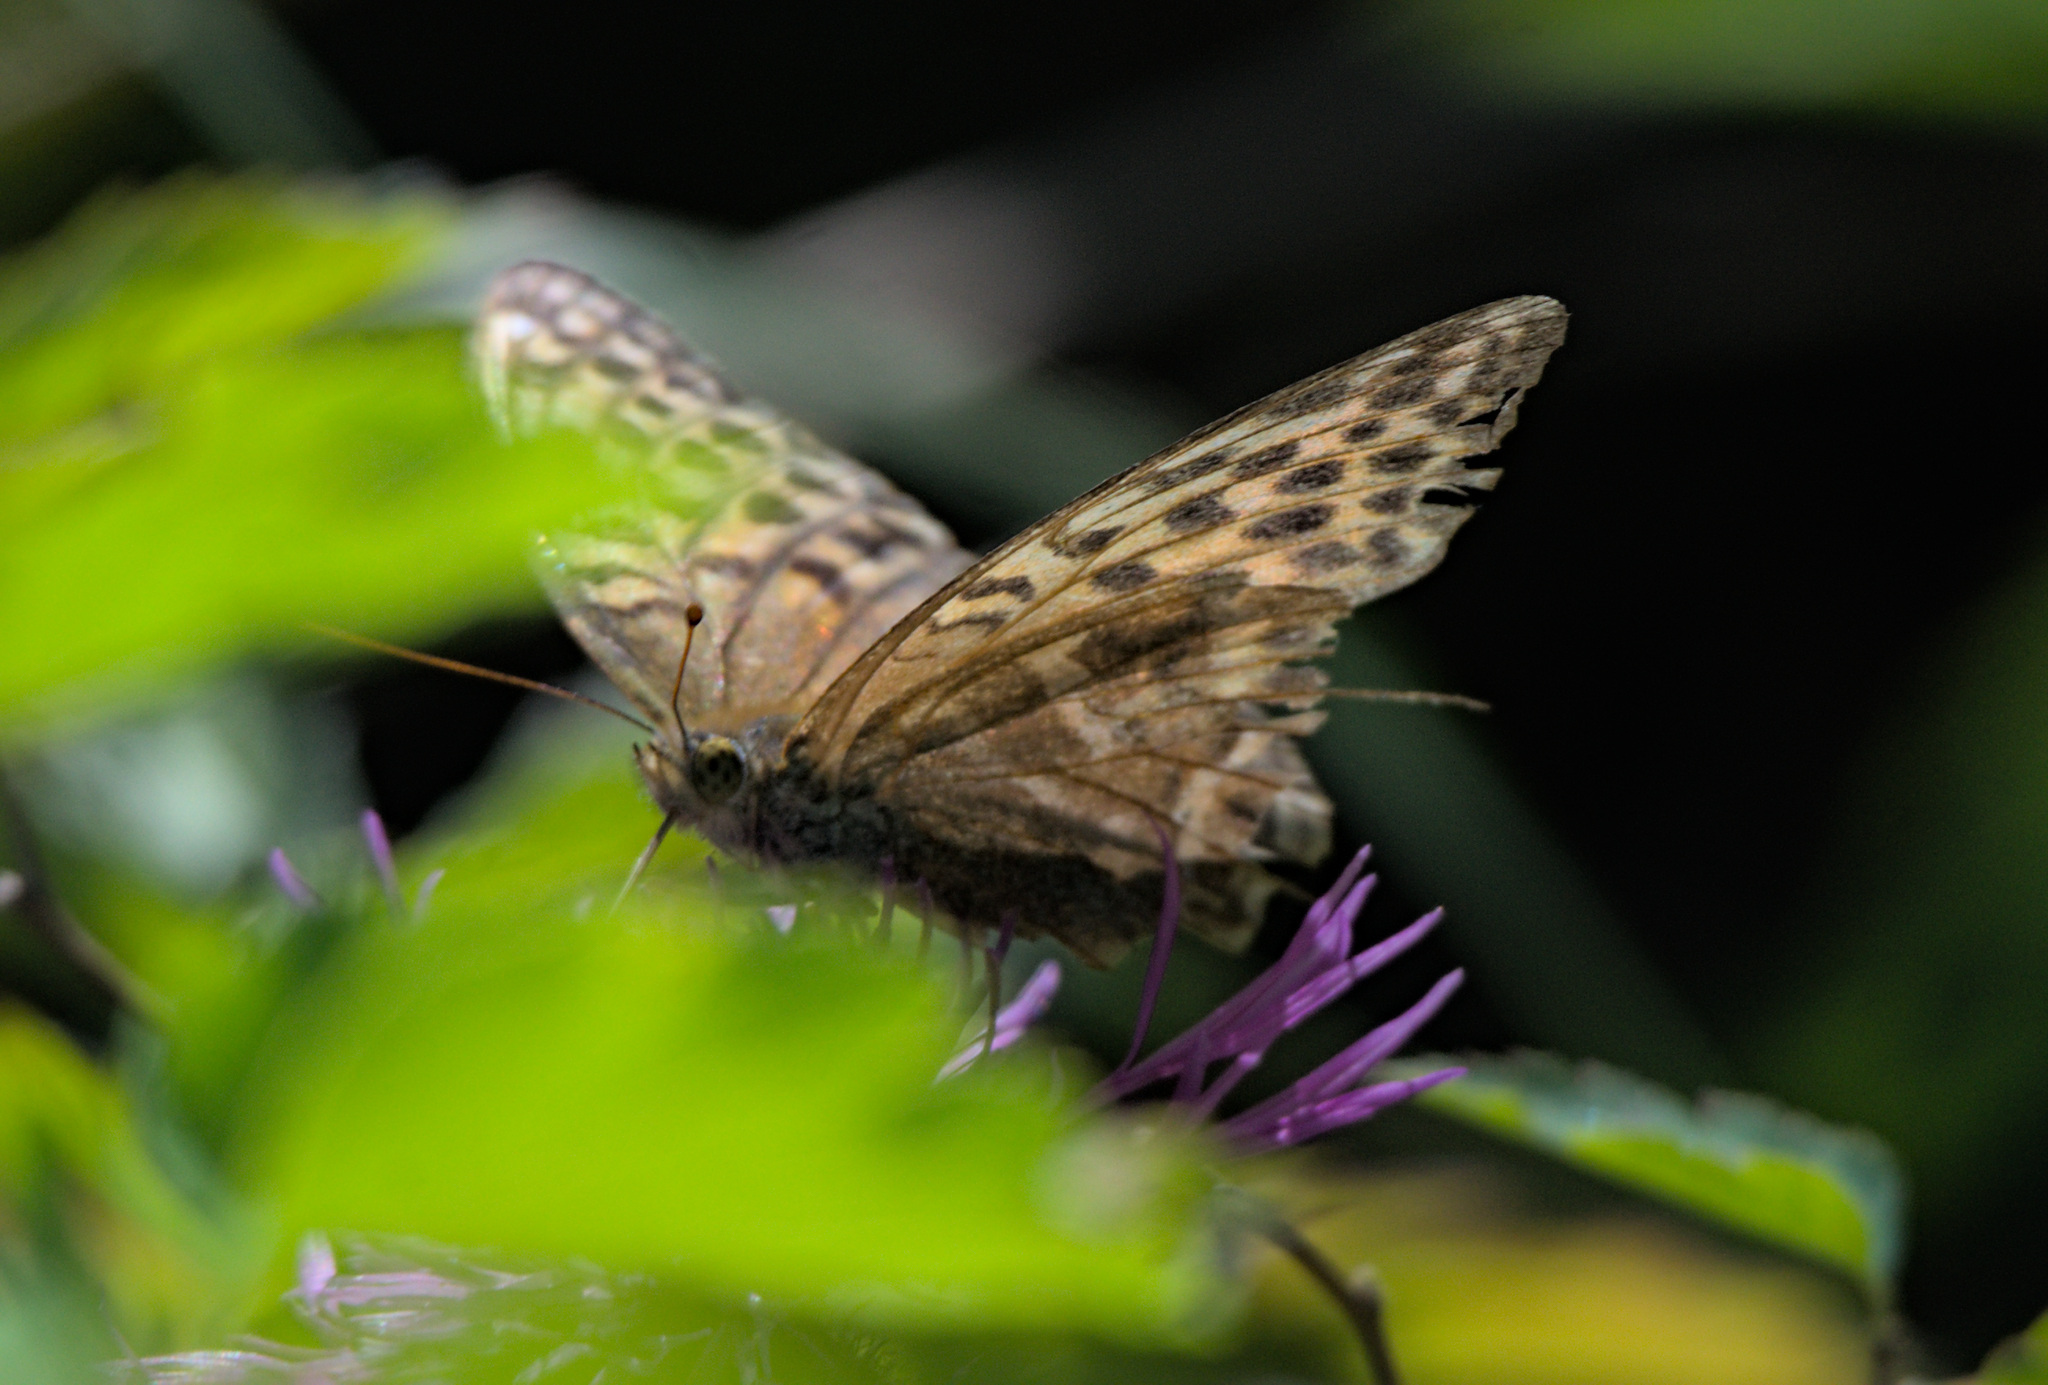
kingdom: Animalia
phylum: Arthropoda
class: Insecta
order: Lepidoptera
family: Nymphalidae
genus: Argynnis
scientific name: Argynnis paphia
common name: Silver-washed fritillary
